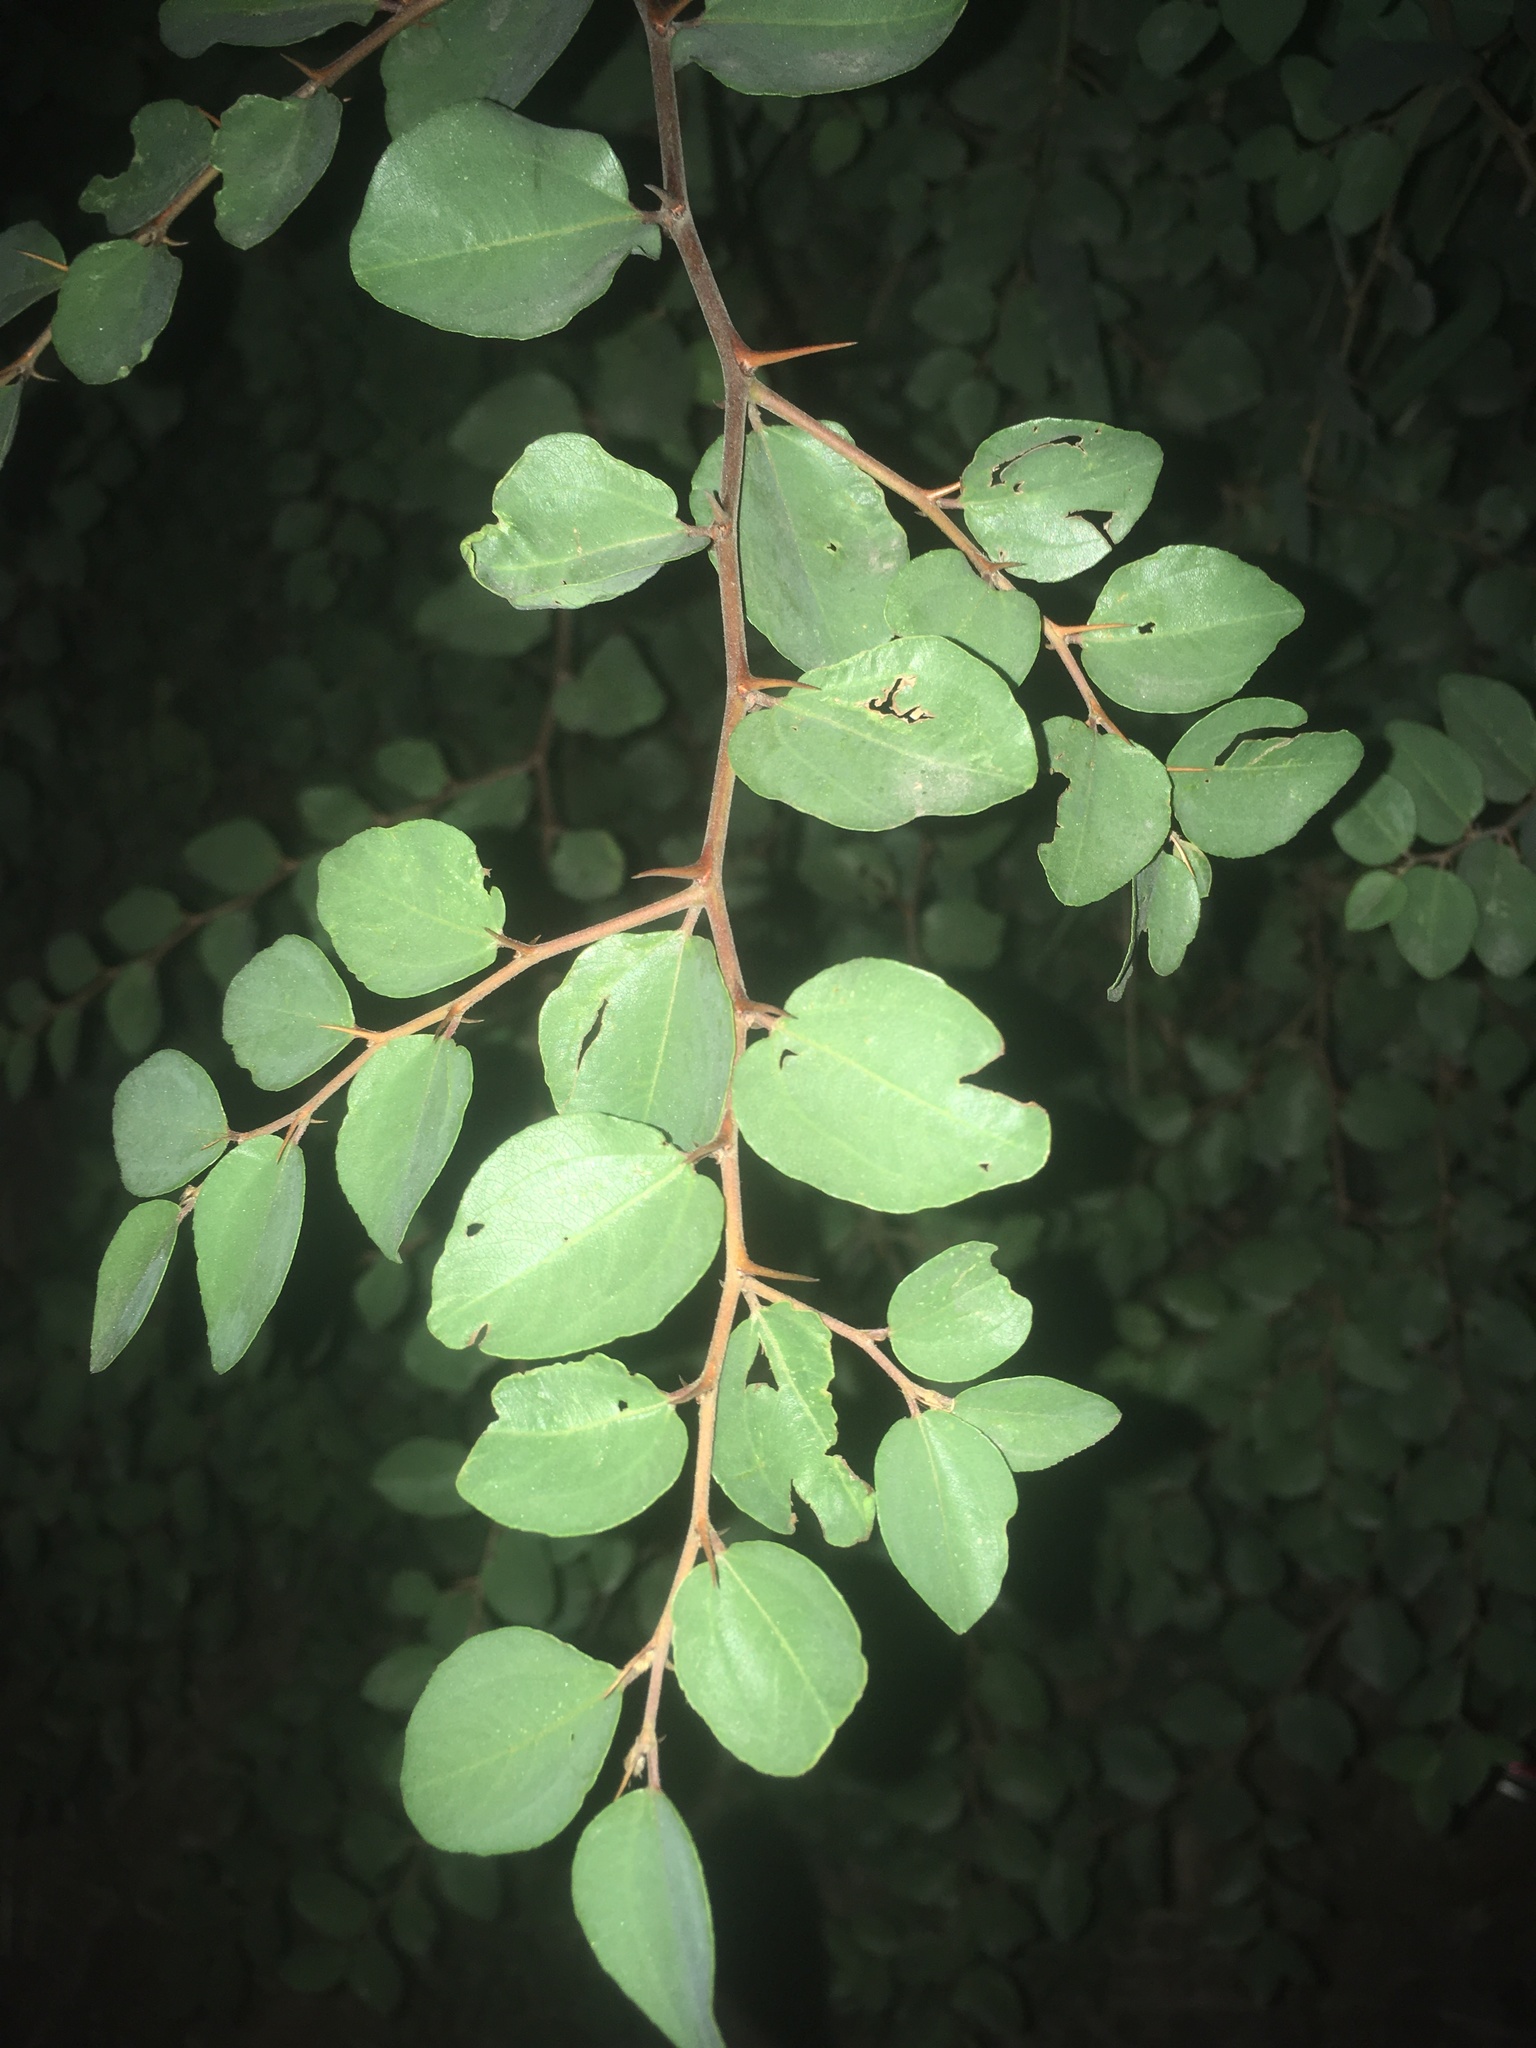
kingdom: Plantae
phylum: Tracheophyta
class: Magnoliopsida
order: Rosales
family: Rhamnaceae
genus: Paliurus
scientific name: Paliurus spina-christi
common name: Jeruselem thorn
